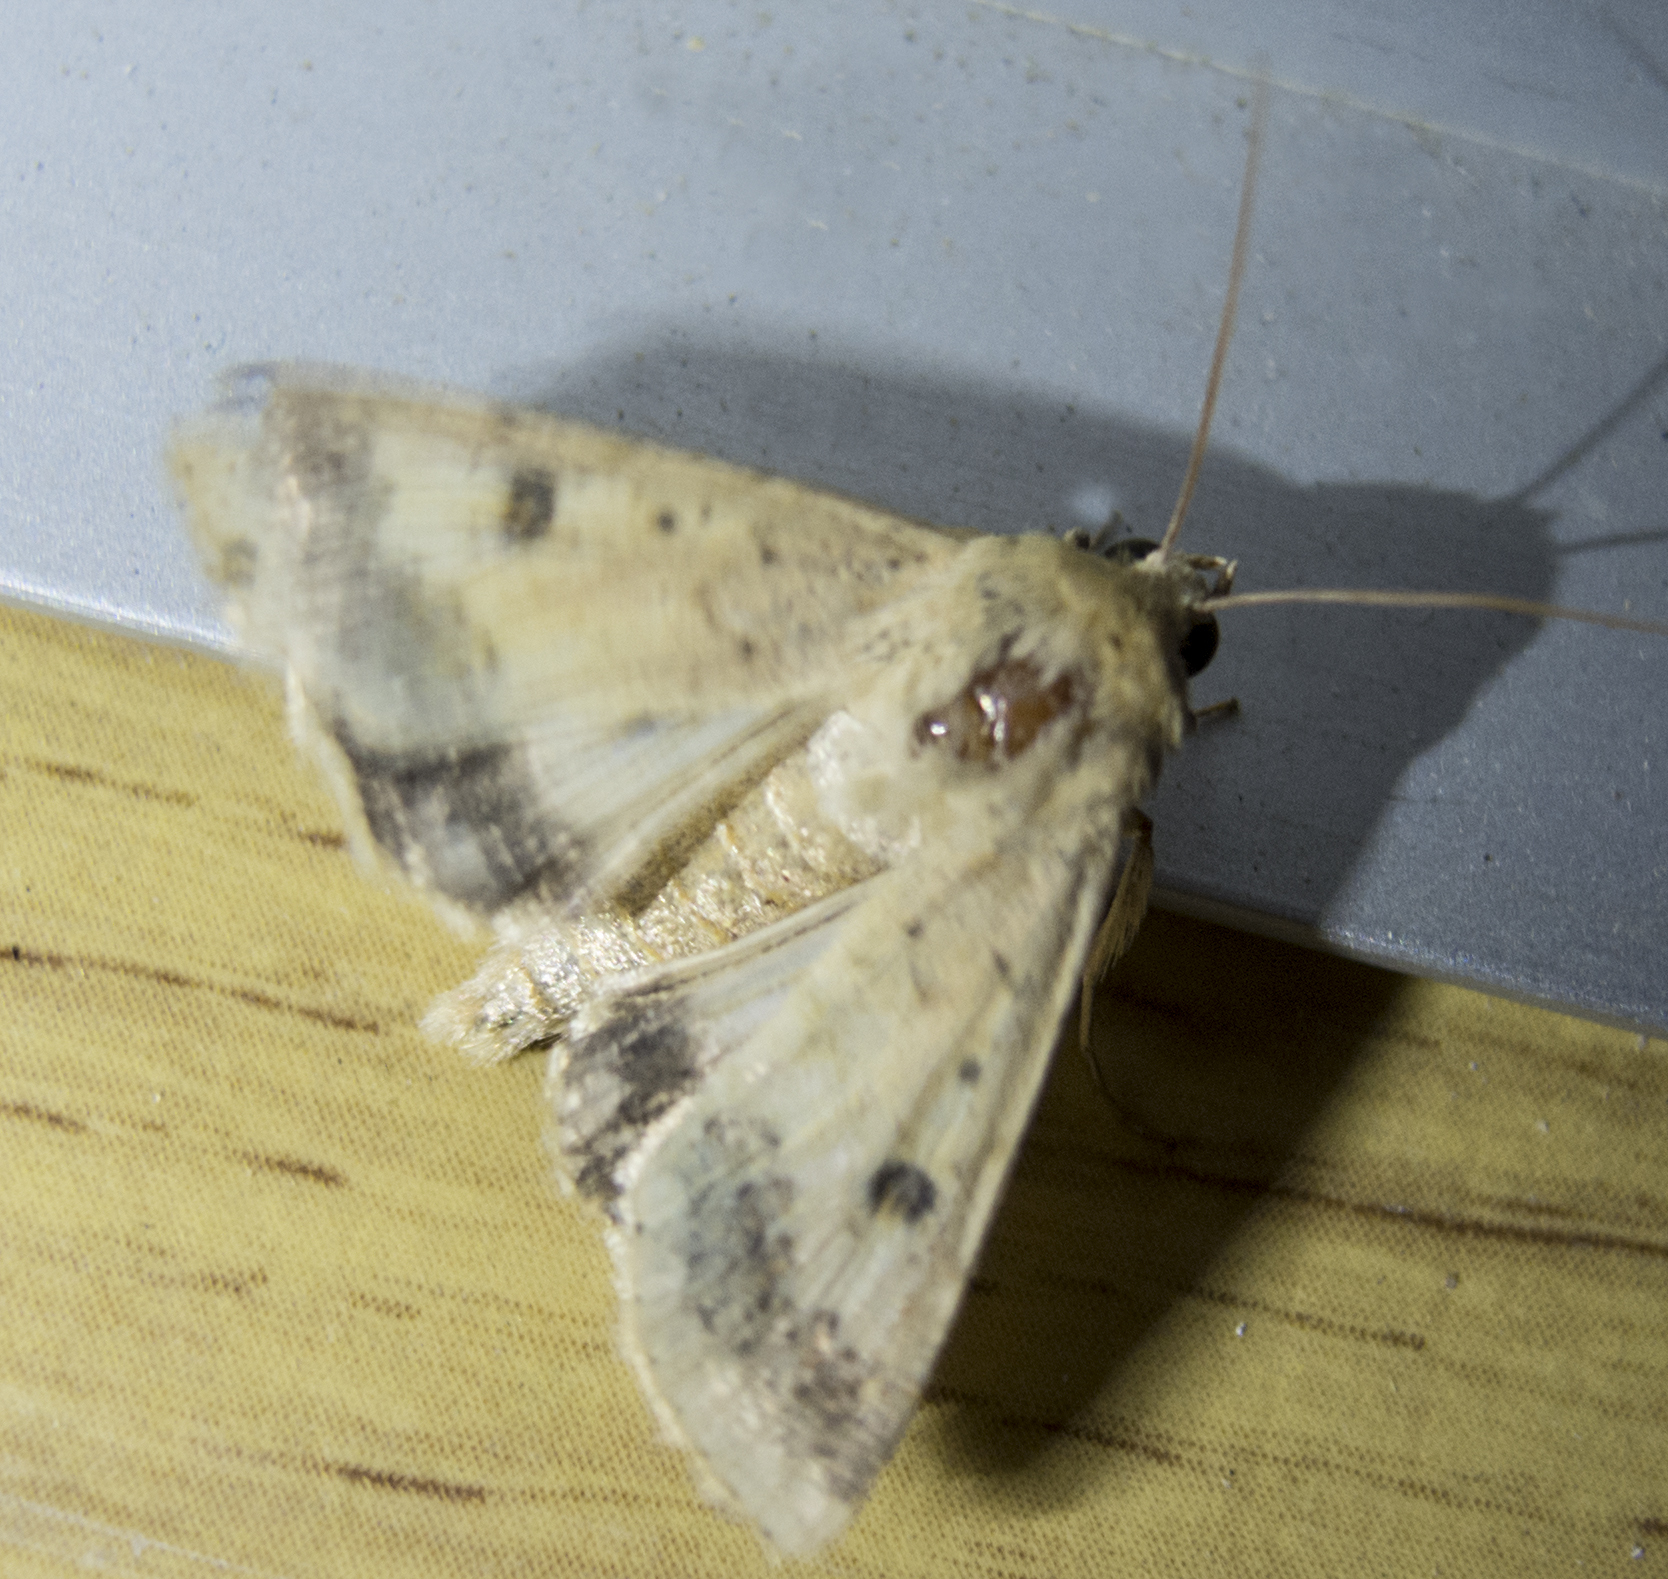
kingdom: Animalia
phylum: Arthropoda
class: Insecta
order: Lepidoptera
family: Noctuidae
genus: Helicoverpa
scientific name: Helicoverpa armigera
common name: Cotton bollworm
